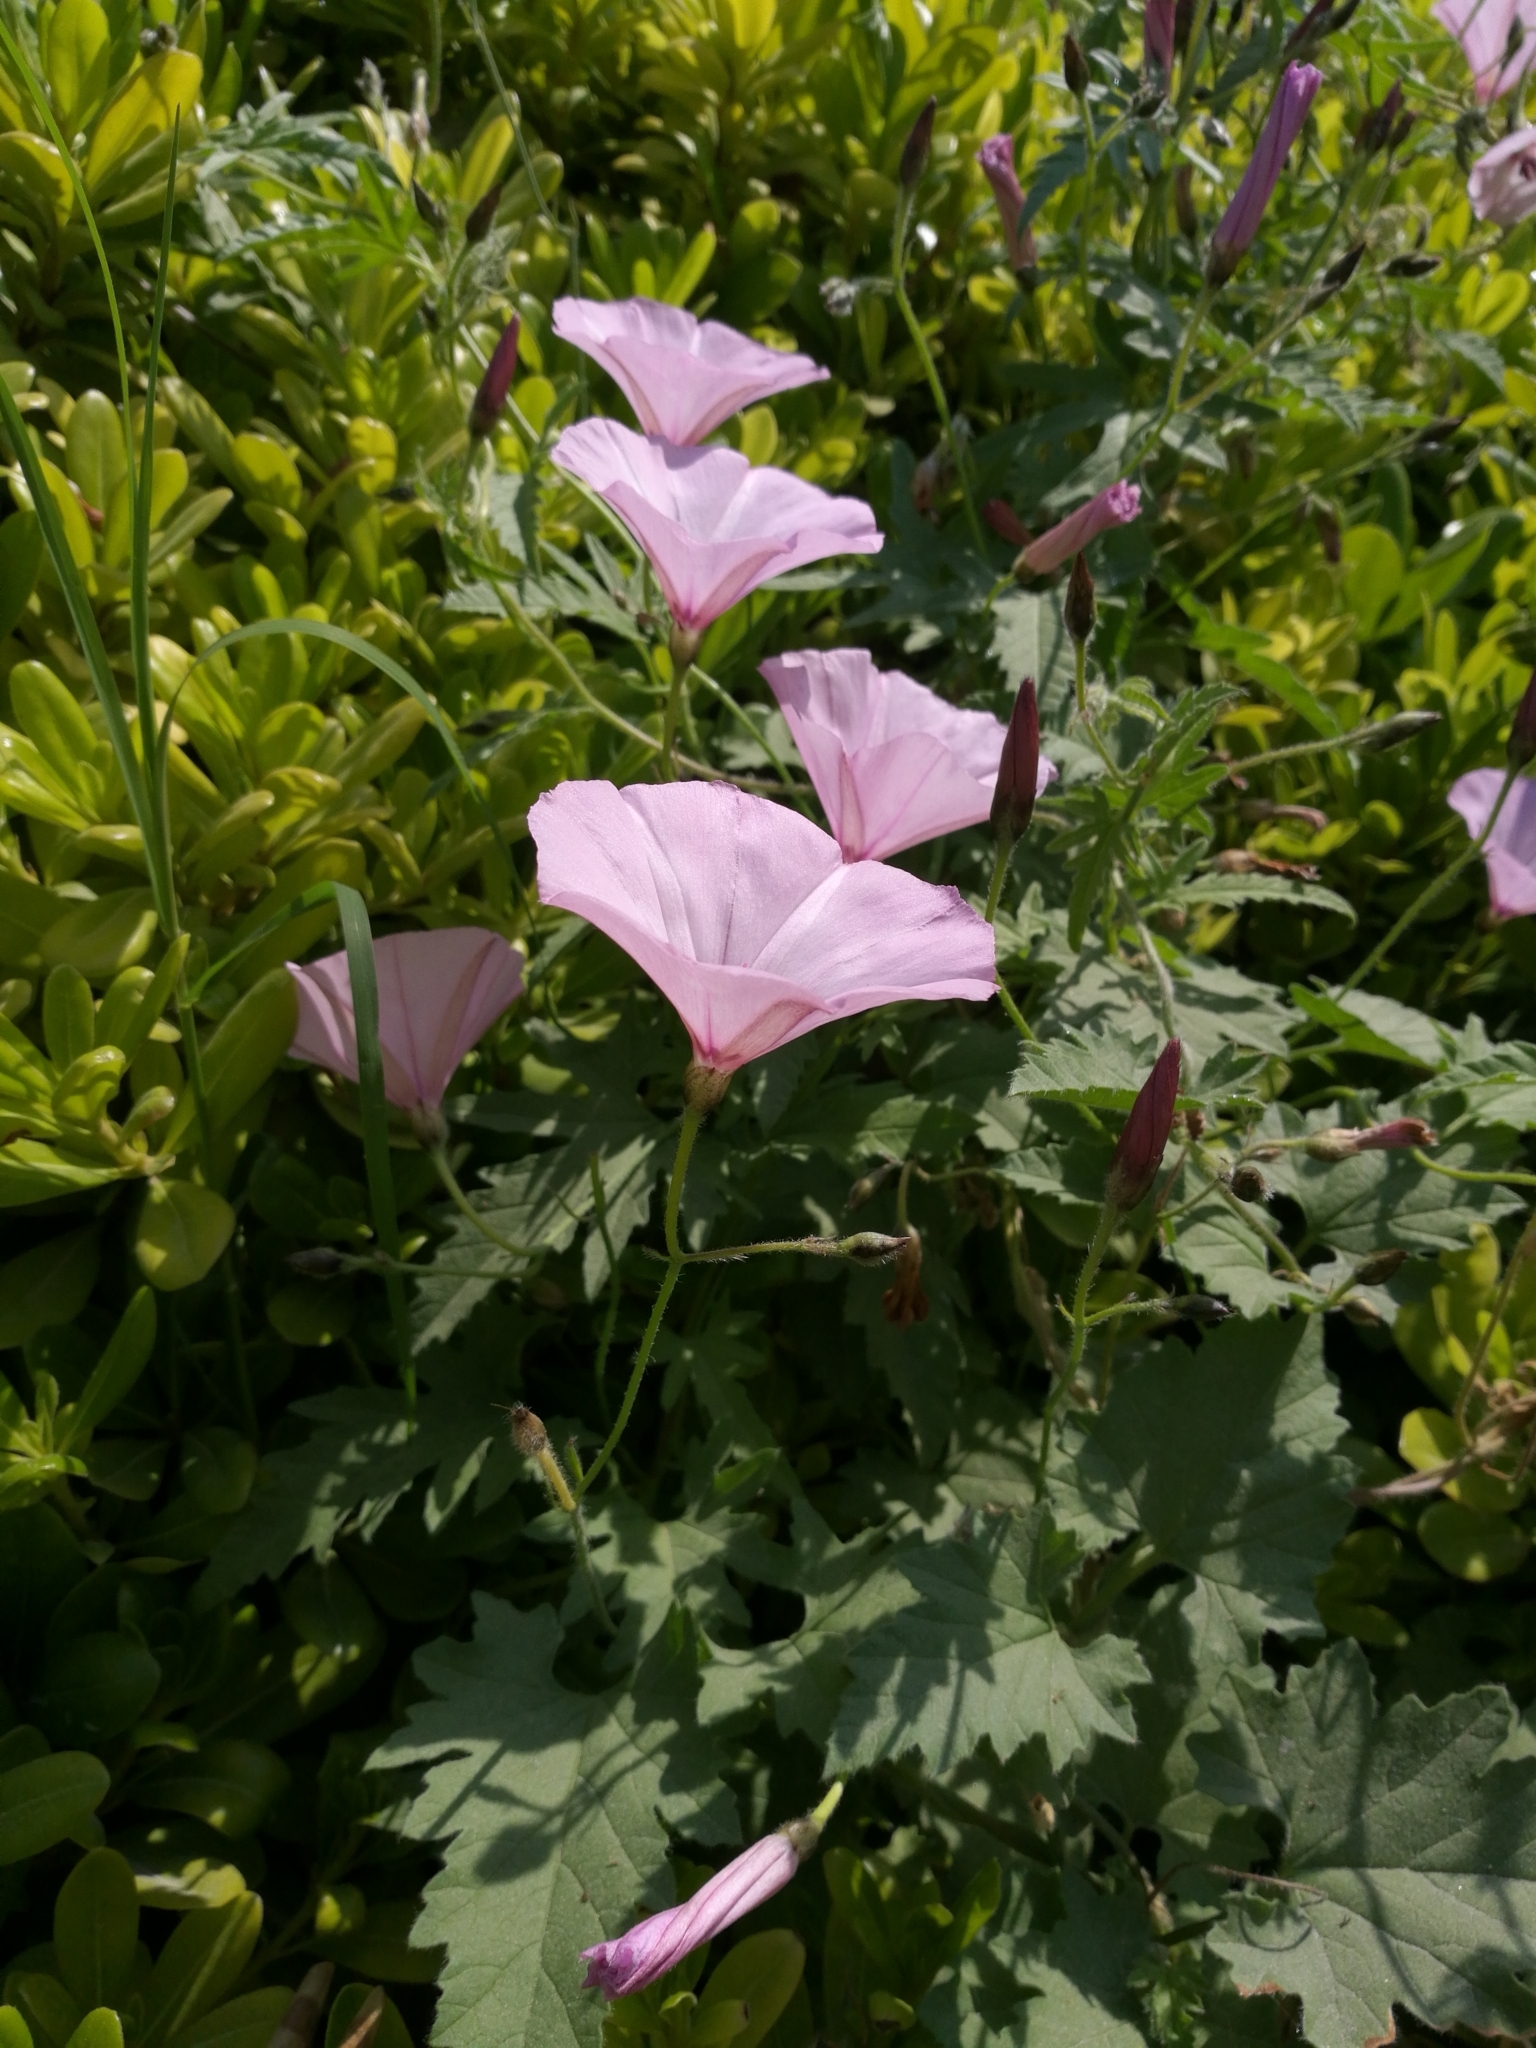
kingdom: Plantae
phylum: Tracheophyta
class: Magnoliopsida
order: Solanales
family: Convolvulaceae
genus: Convolvulus
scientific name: Convolvulus althaeoides
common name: Mallow bindweed
